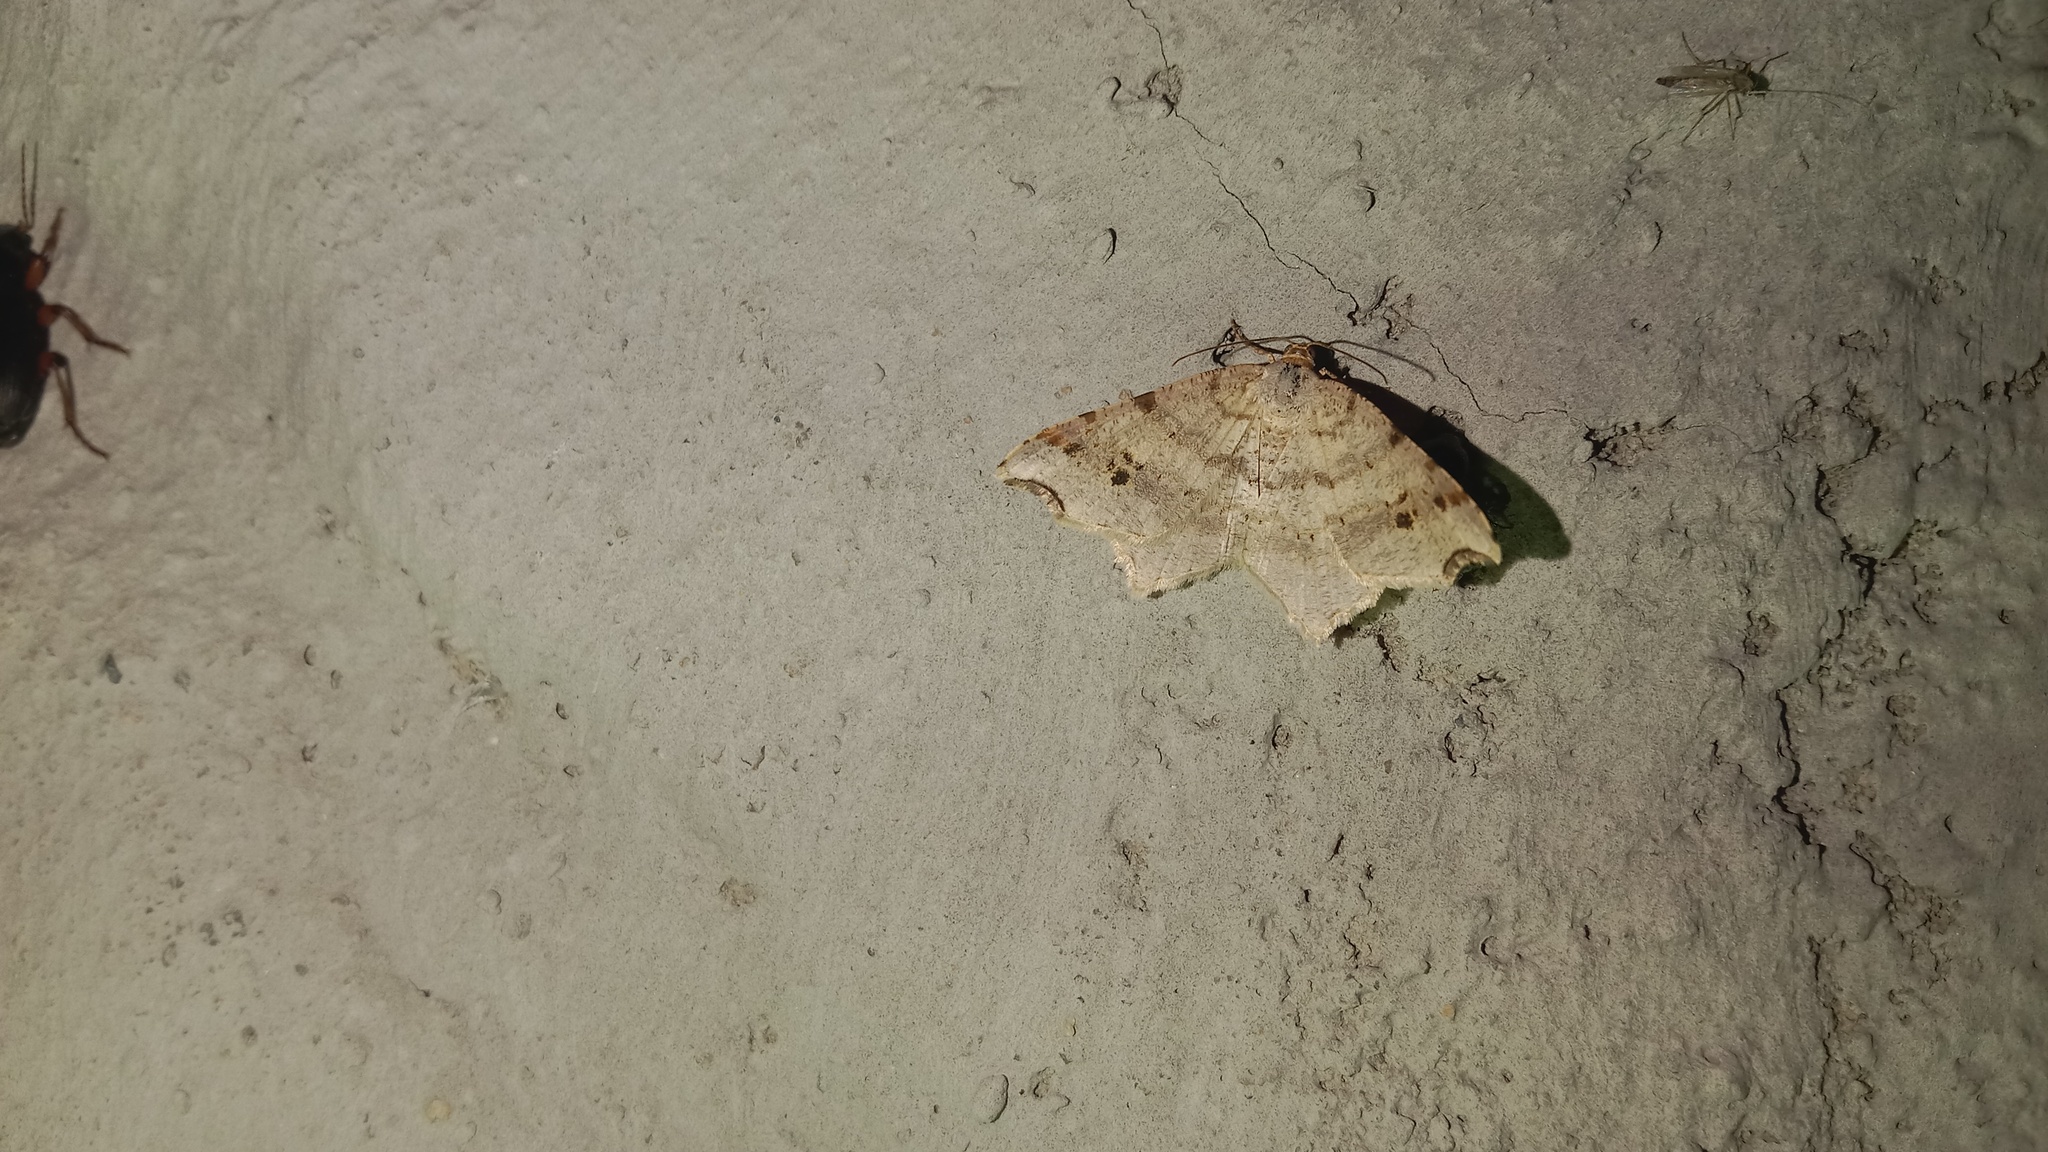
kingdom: Animalia
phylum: Arthropoda
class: Insecta
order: Lepidoptera
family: Geometridae
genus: Macaria
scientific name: Macaria alternata
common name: Sharp-angled peacock
